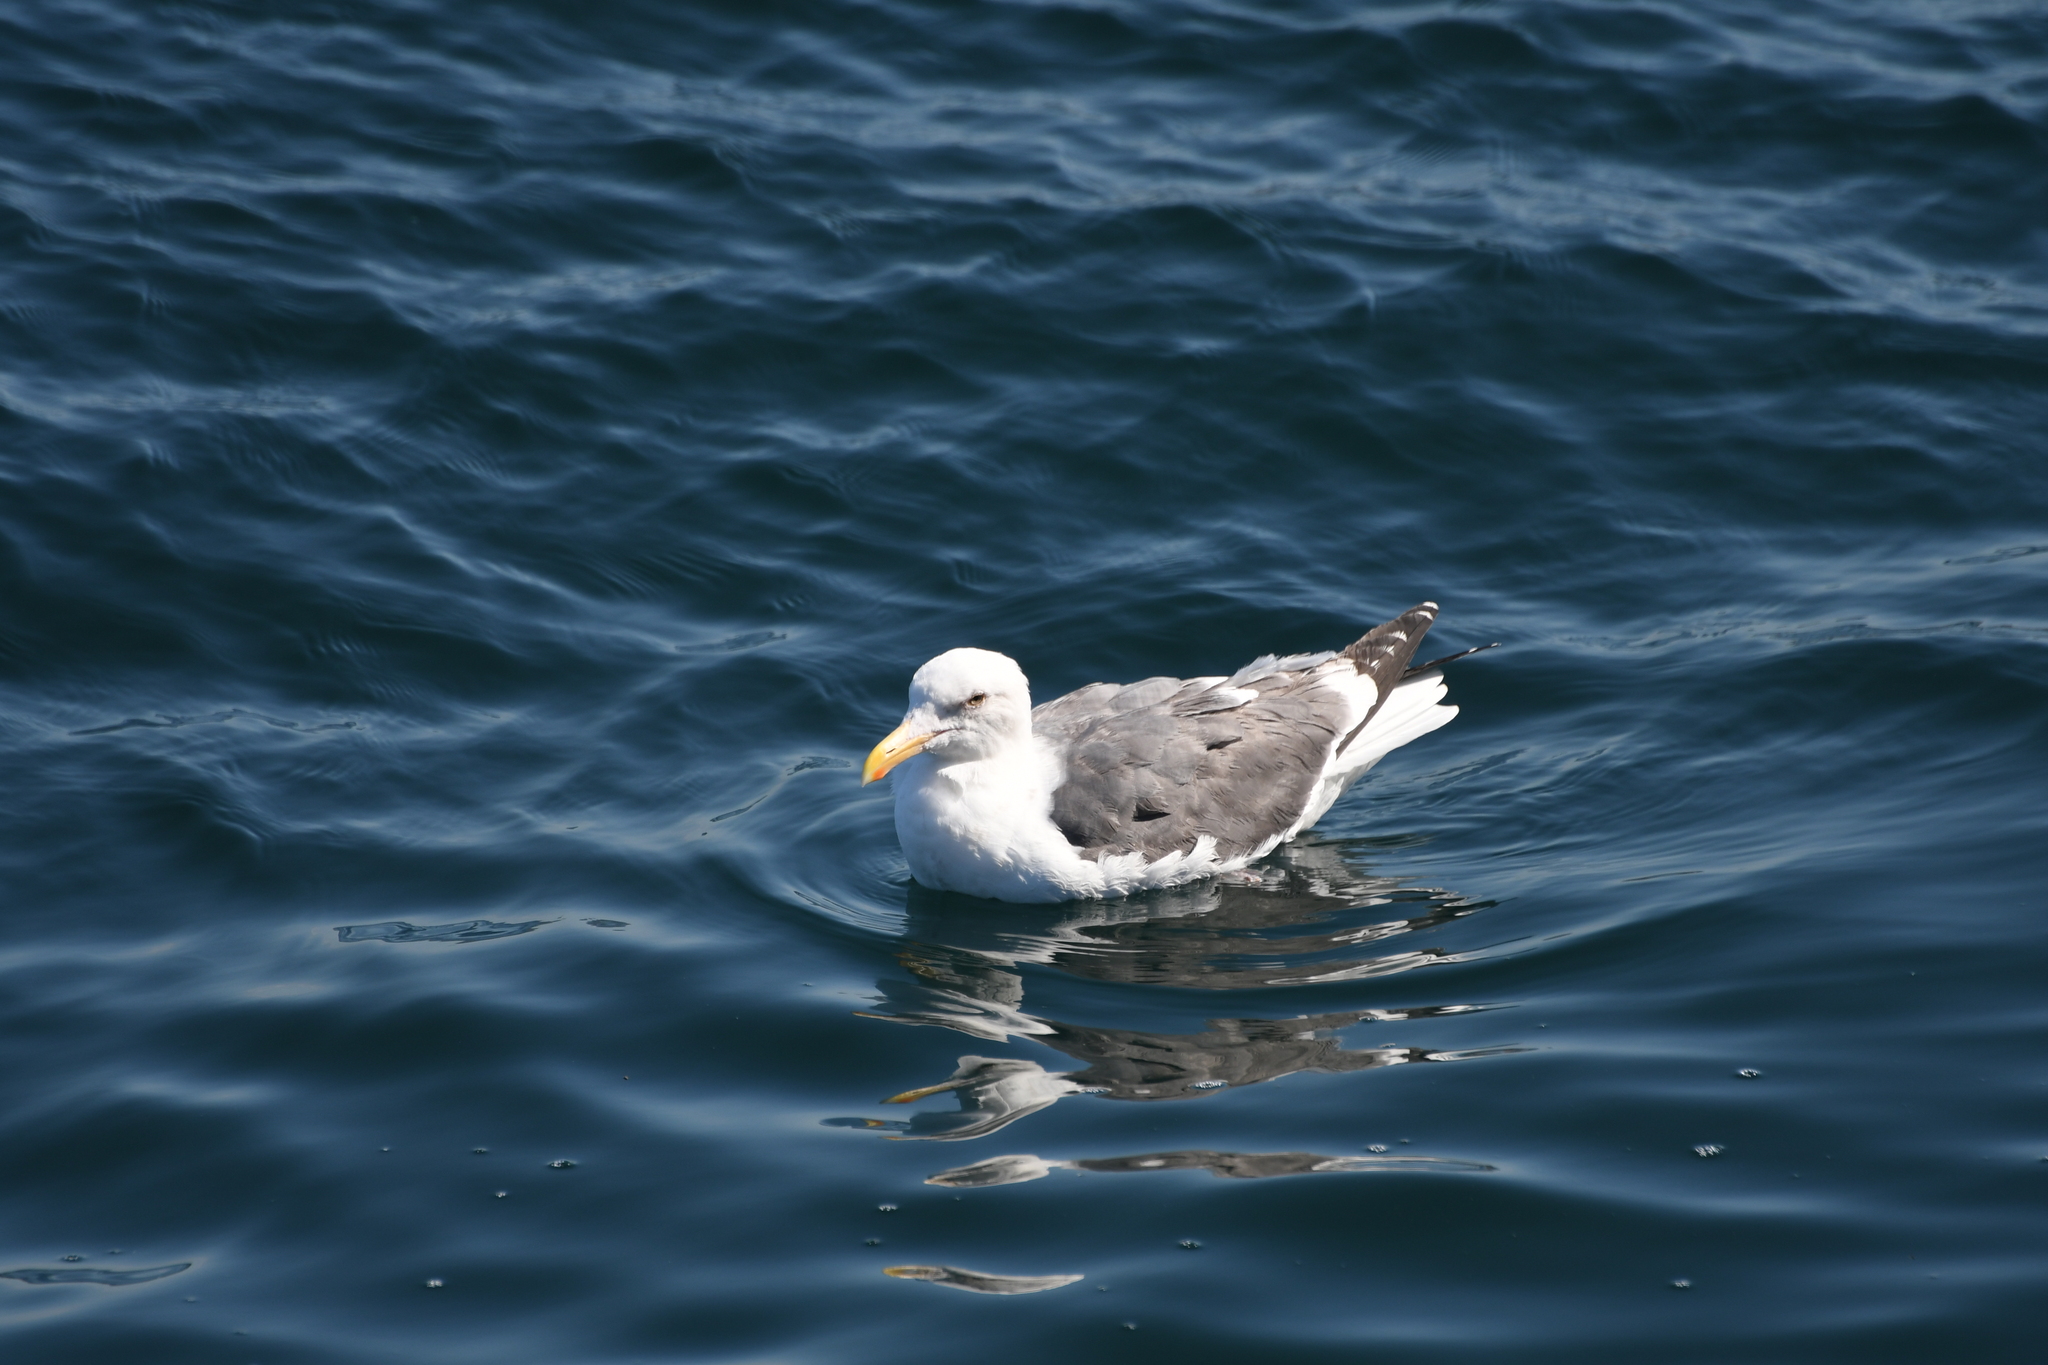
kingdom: Animalia
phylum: Chordata
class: Aves
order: Charadriiformes
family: Laridae
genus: Larus
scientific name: Larus occidentalis
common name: Western gull
